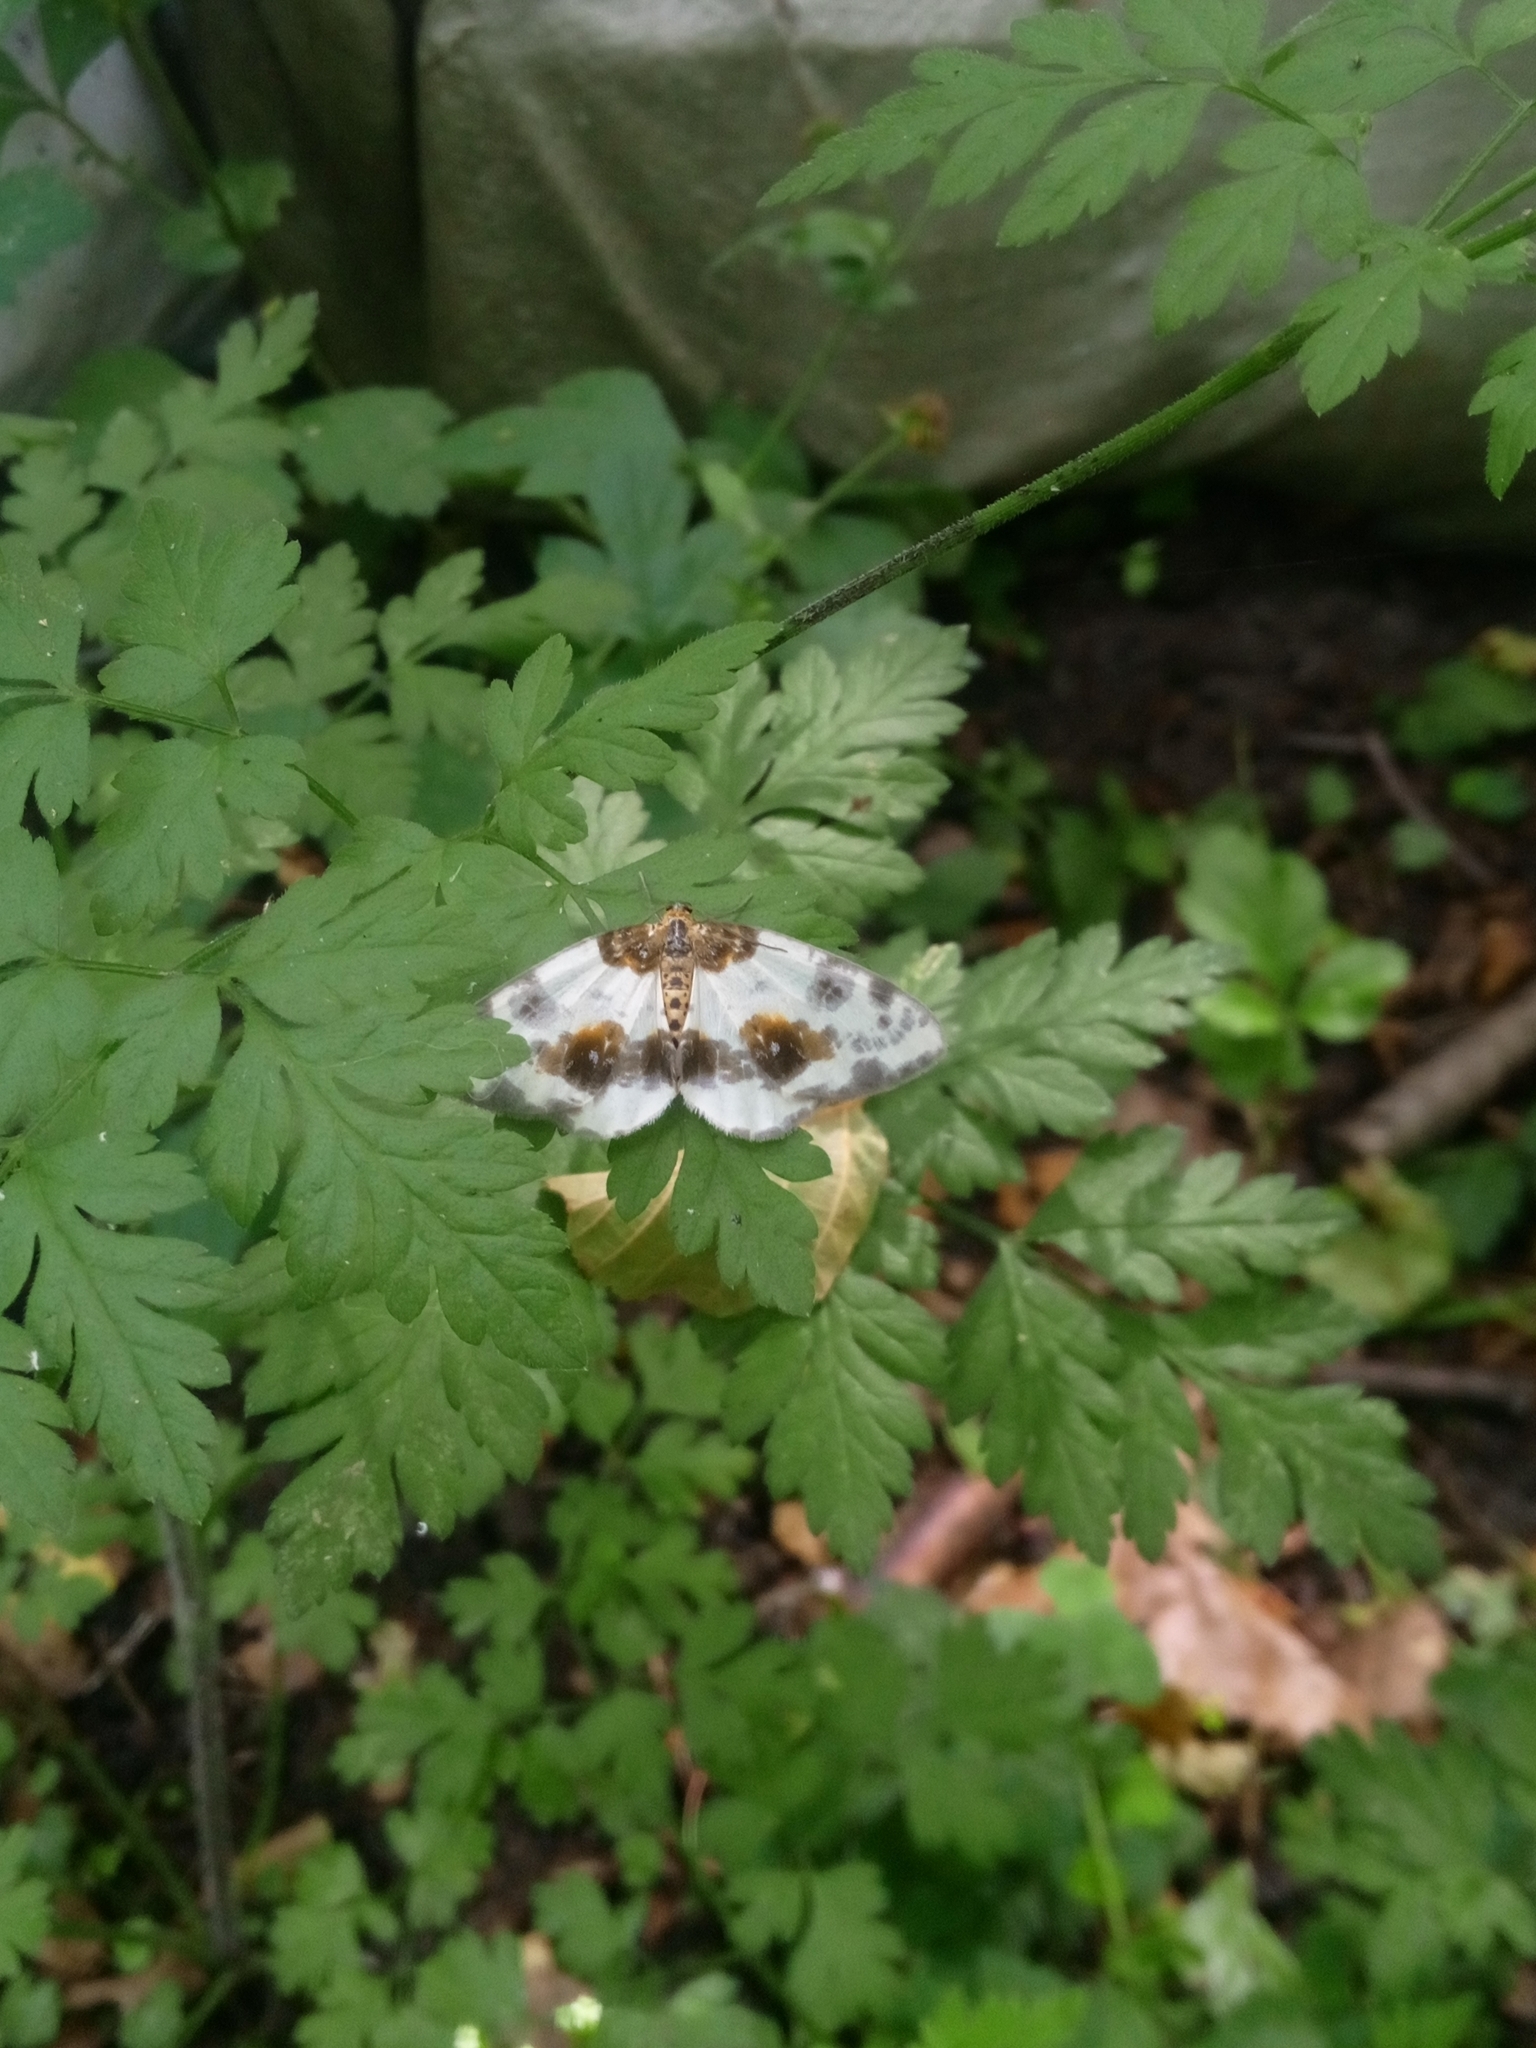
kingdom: Animalia
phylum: Arthropoda
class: Insecta
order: Lepidoptera
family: Geometridae
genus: Abraxas
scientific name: Abraxas sylvata
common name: Clouded magpie
